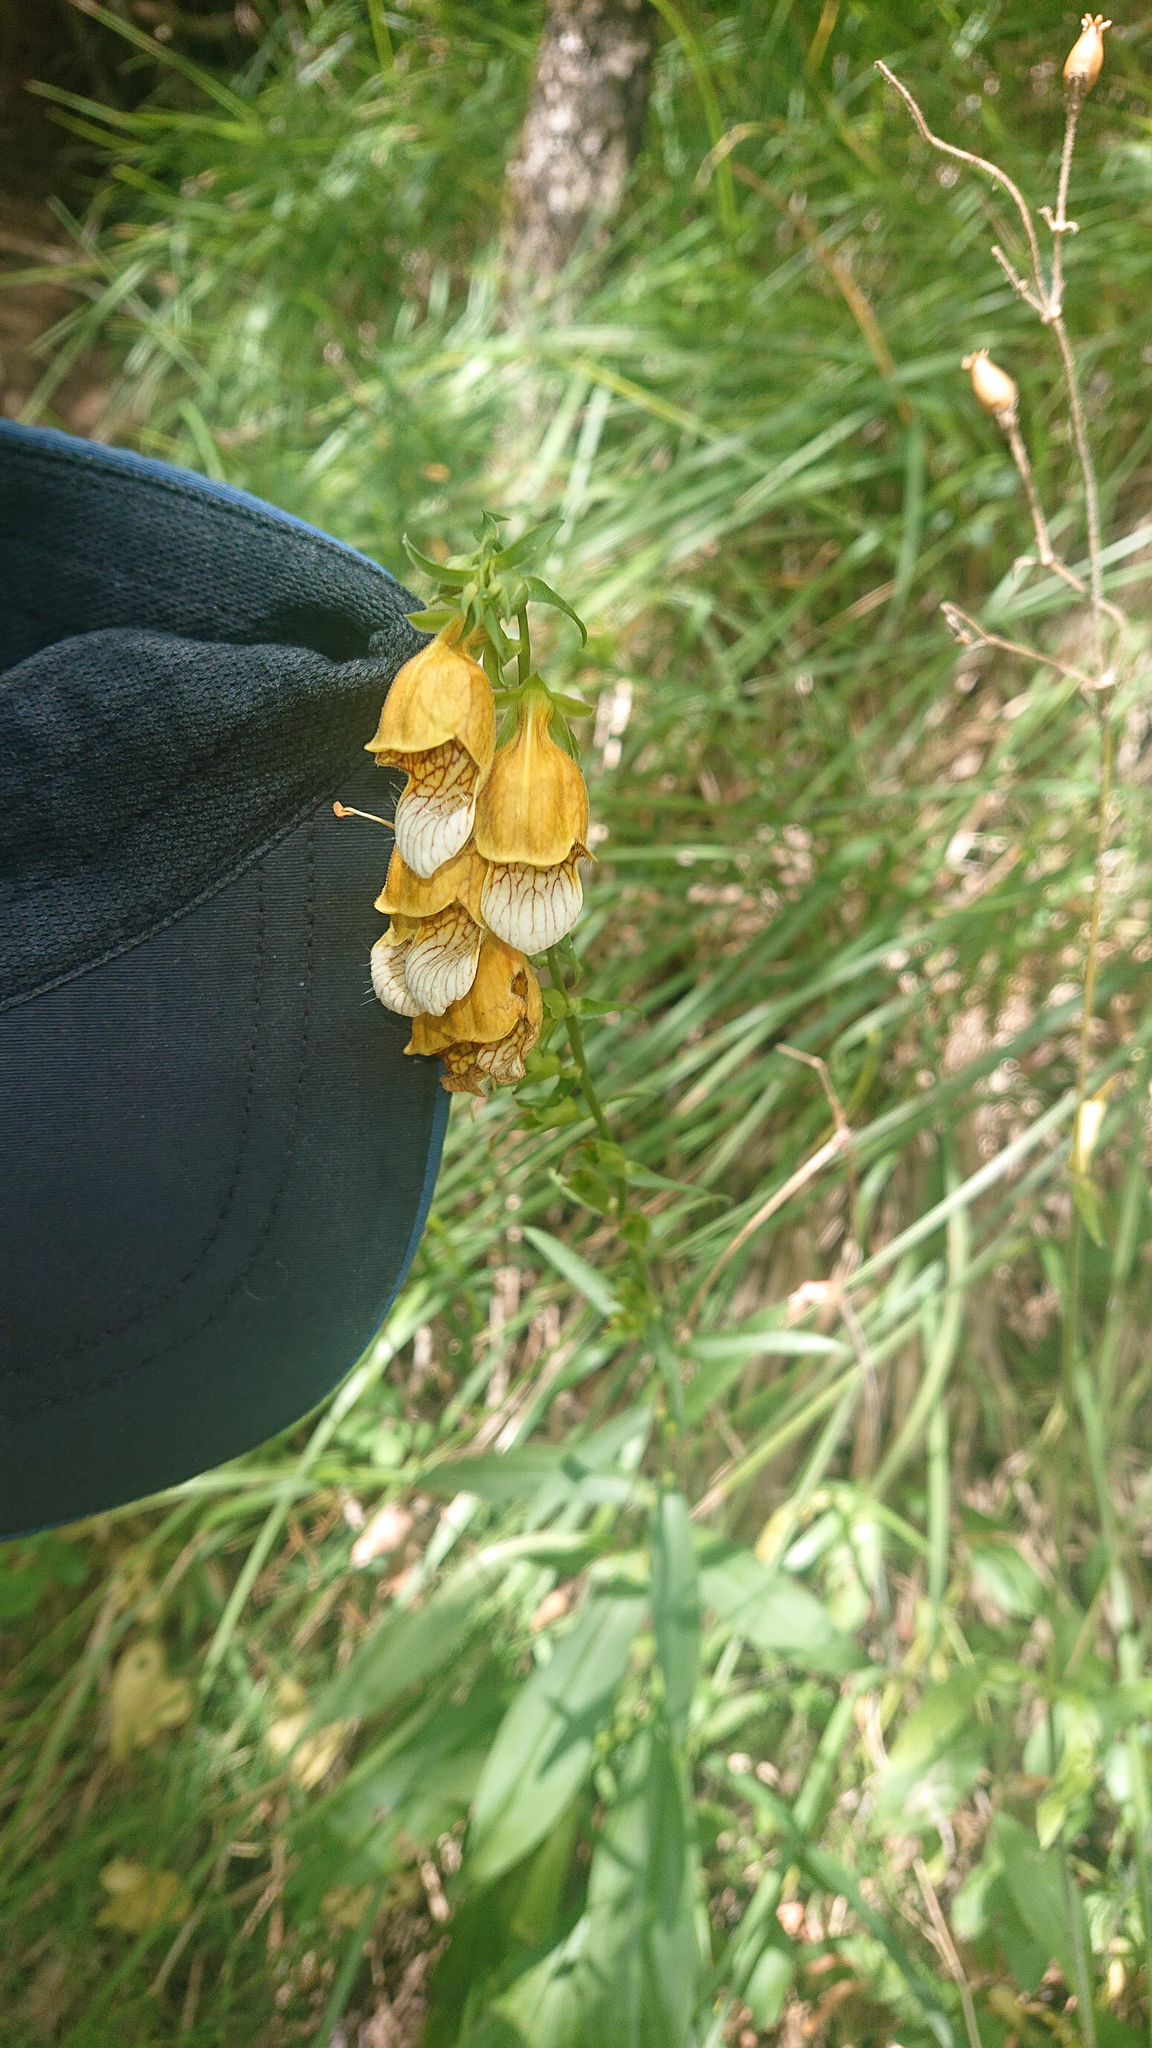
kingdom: Plantae
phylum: Tracheophyta
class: Magnoliopsida
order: Lamiales
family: Plantaginaceae
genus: Digitalis
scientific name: Digitalis laevigata
